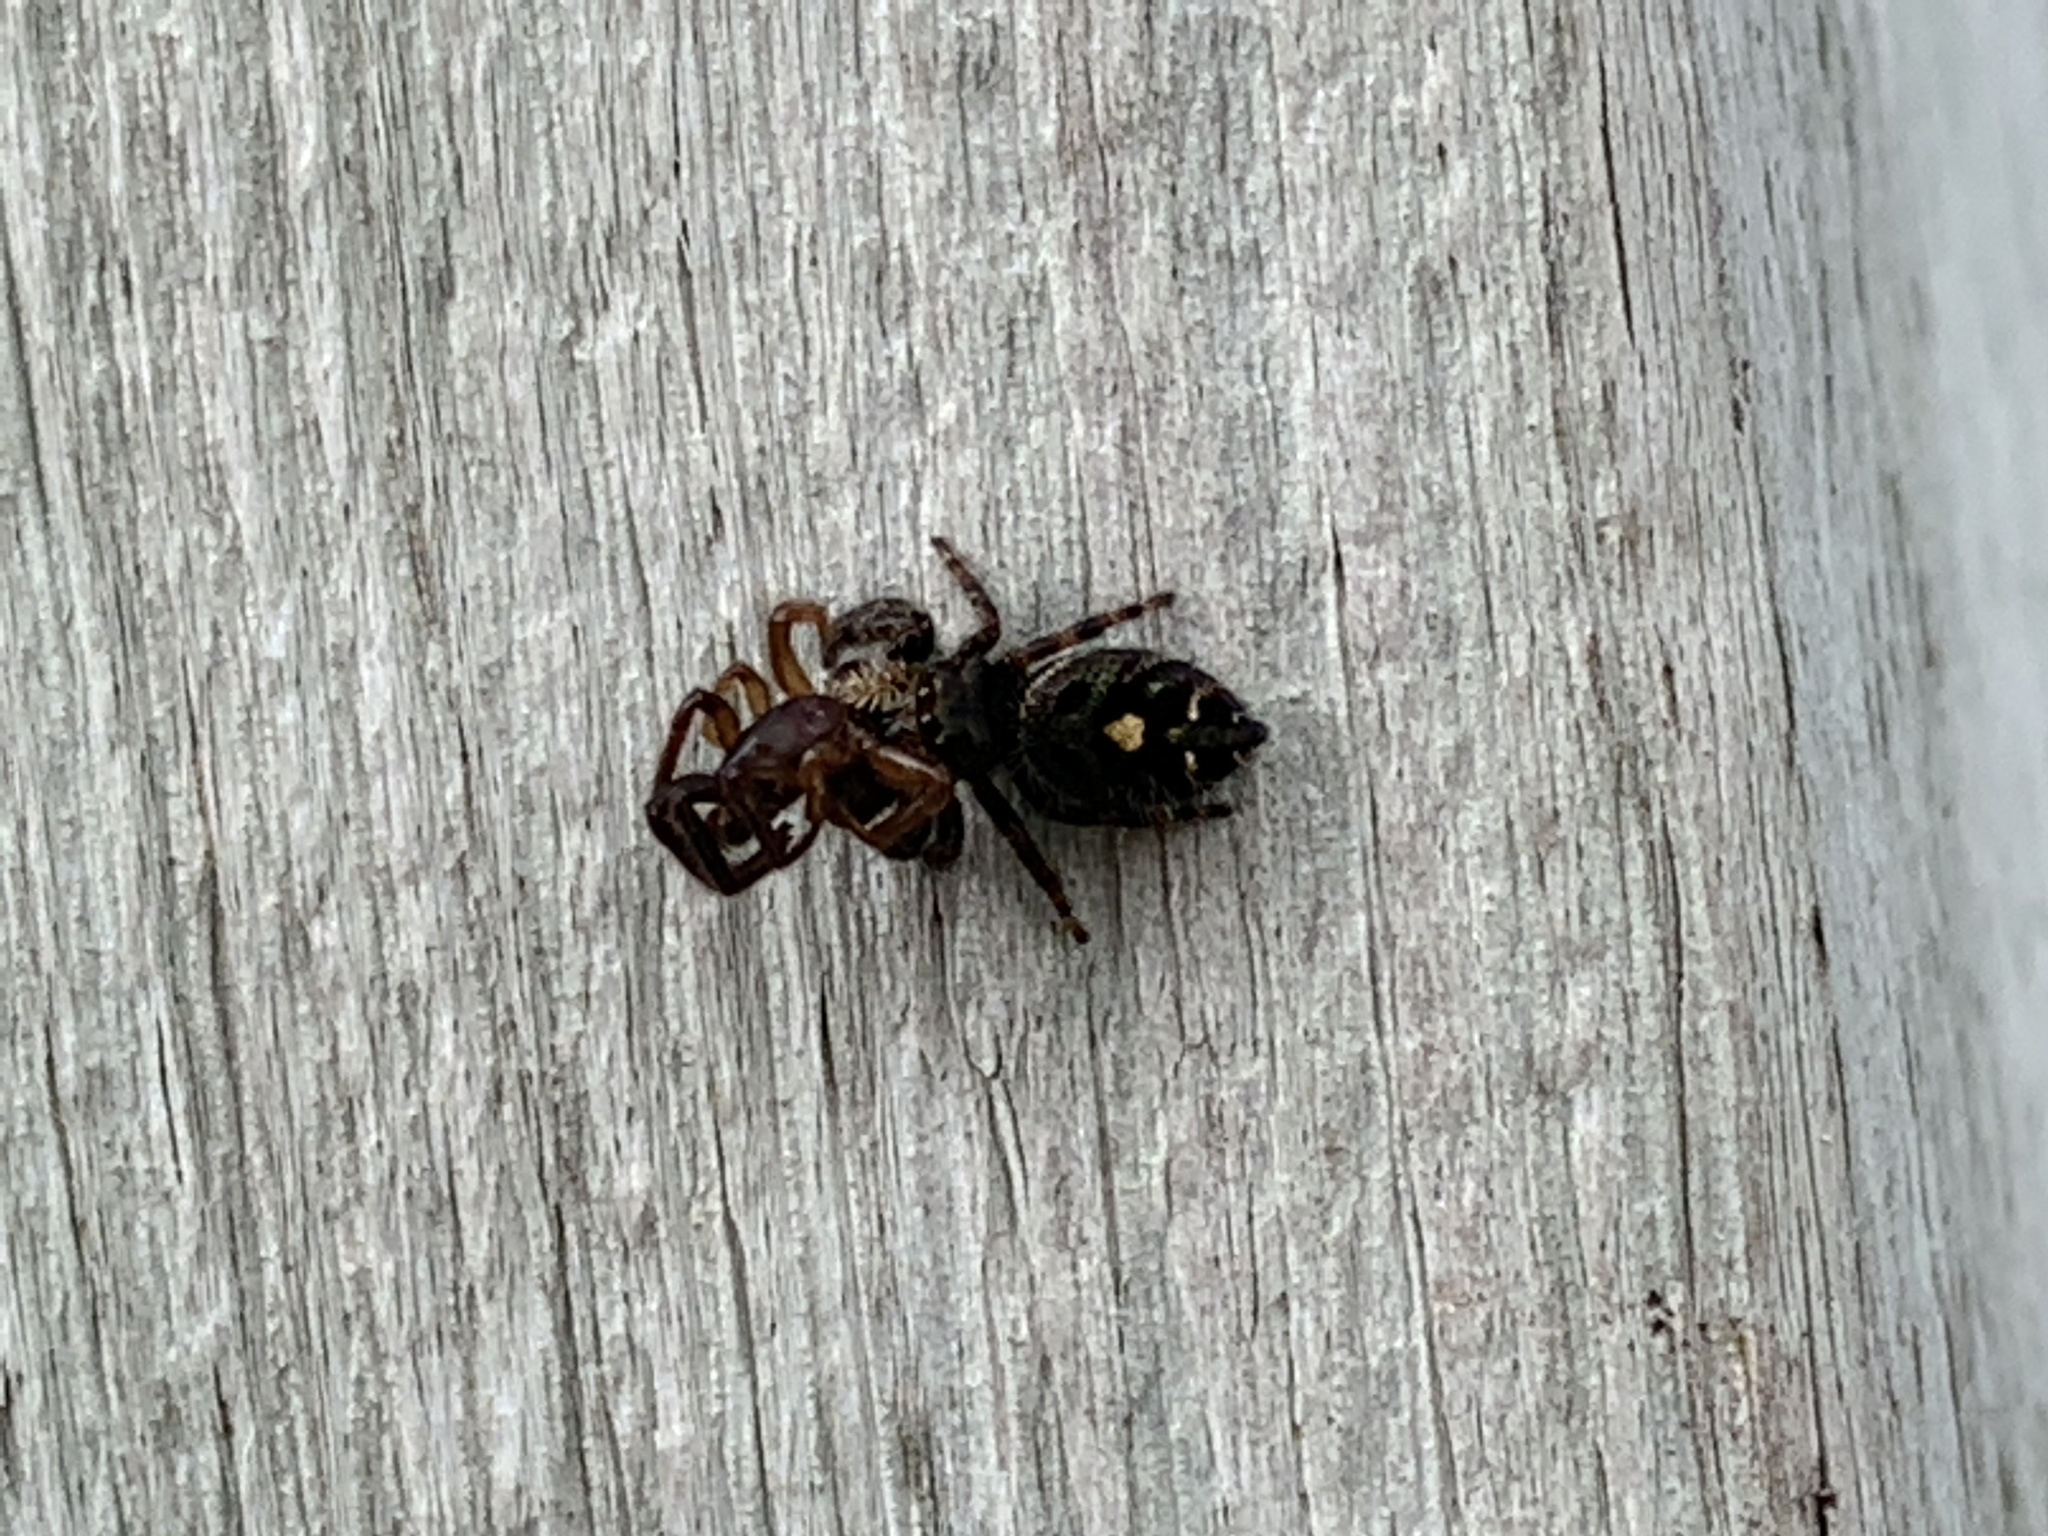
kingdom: Animalia
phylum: Arthropoda
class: Arachnida
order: Araneae
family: Salticidae
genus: Phidippus
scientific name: Phidippus audax
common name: Bold jumper
